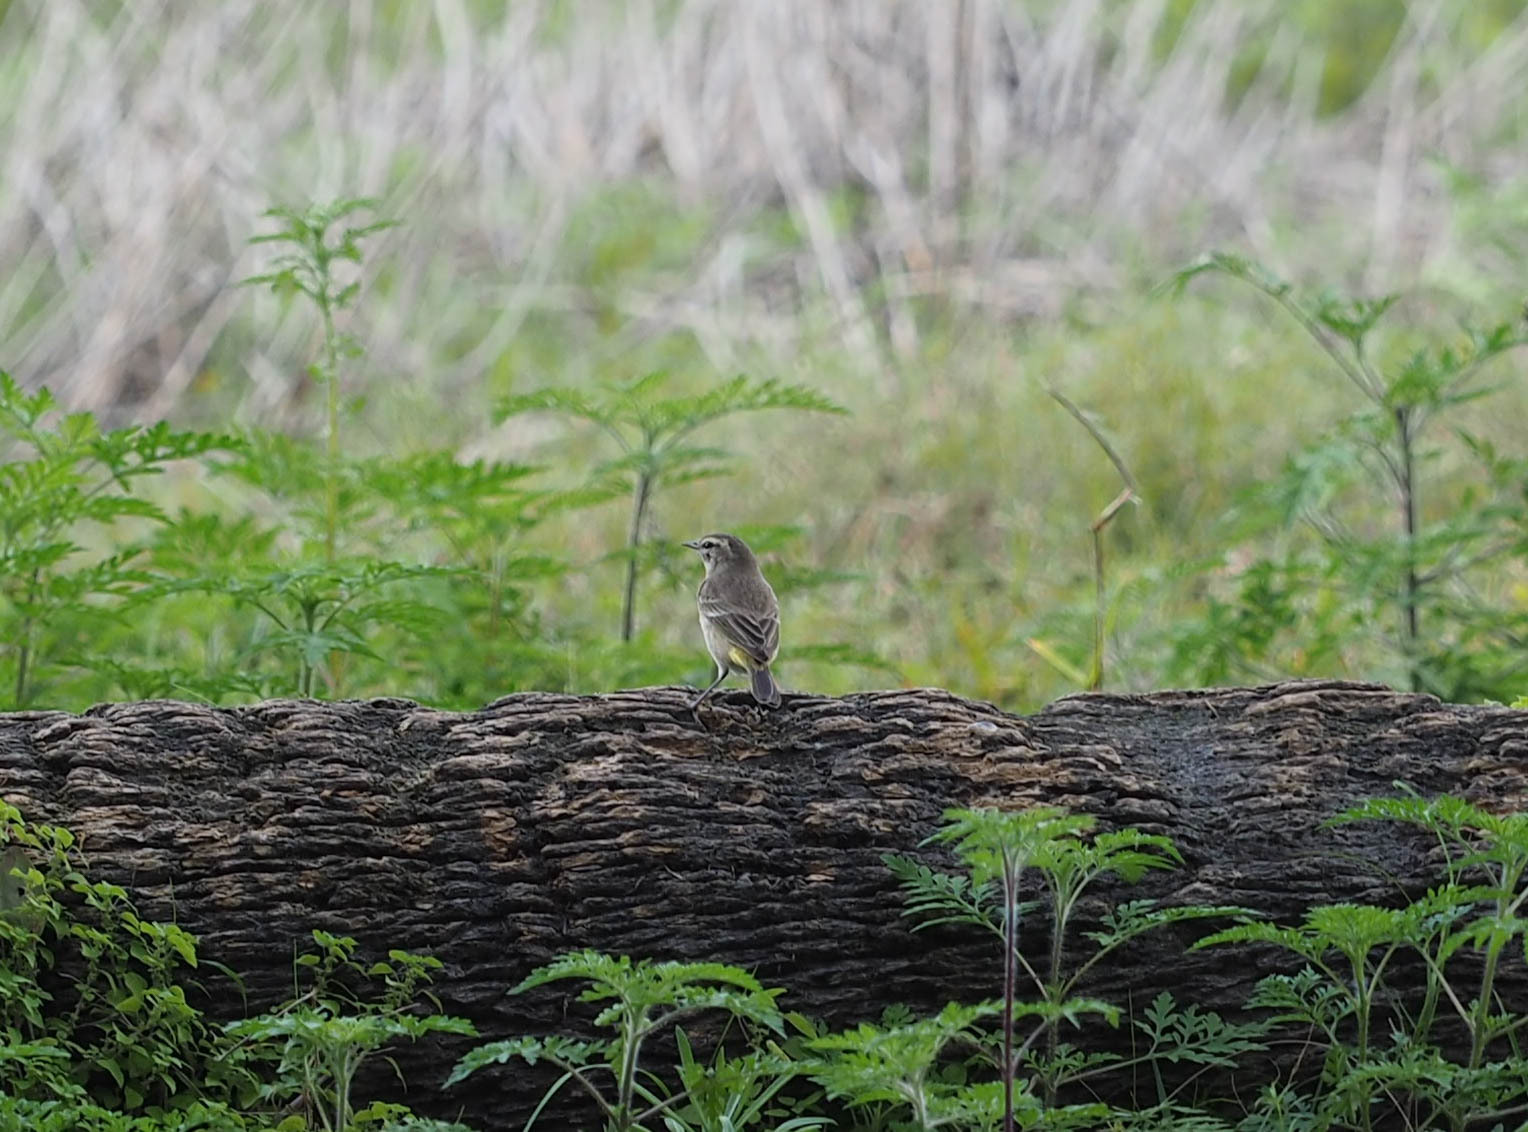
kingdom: Animalia
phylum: Chordata
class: Aves
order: Passeriformes
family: Parulidae
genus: Setophaga
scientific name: Setophaga palmarum
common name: Palm warbler
